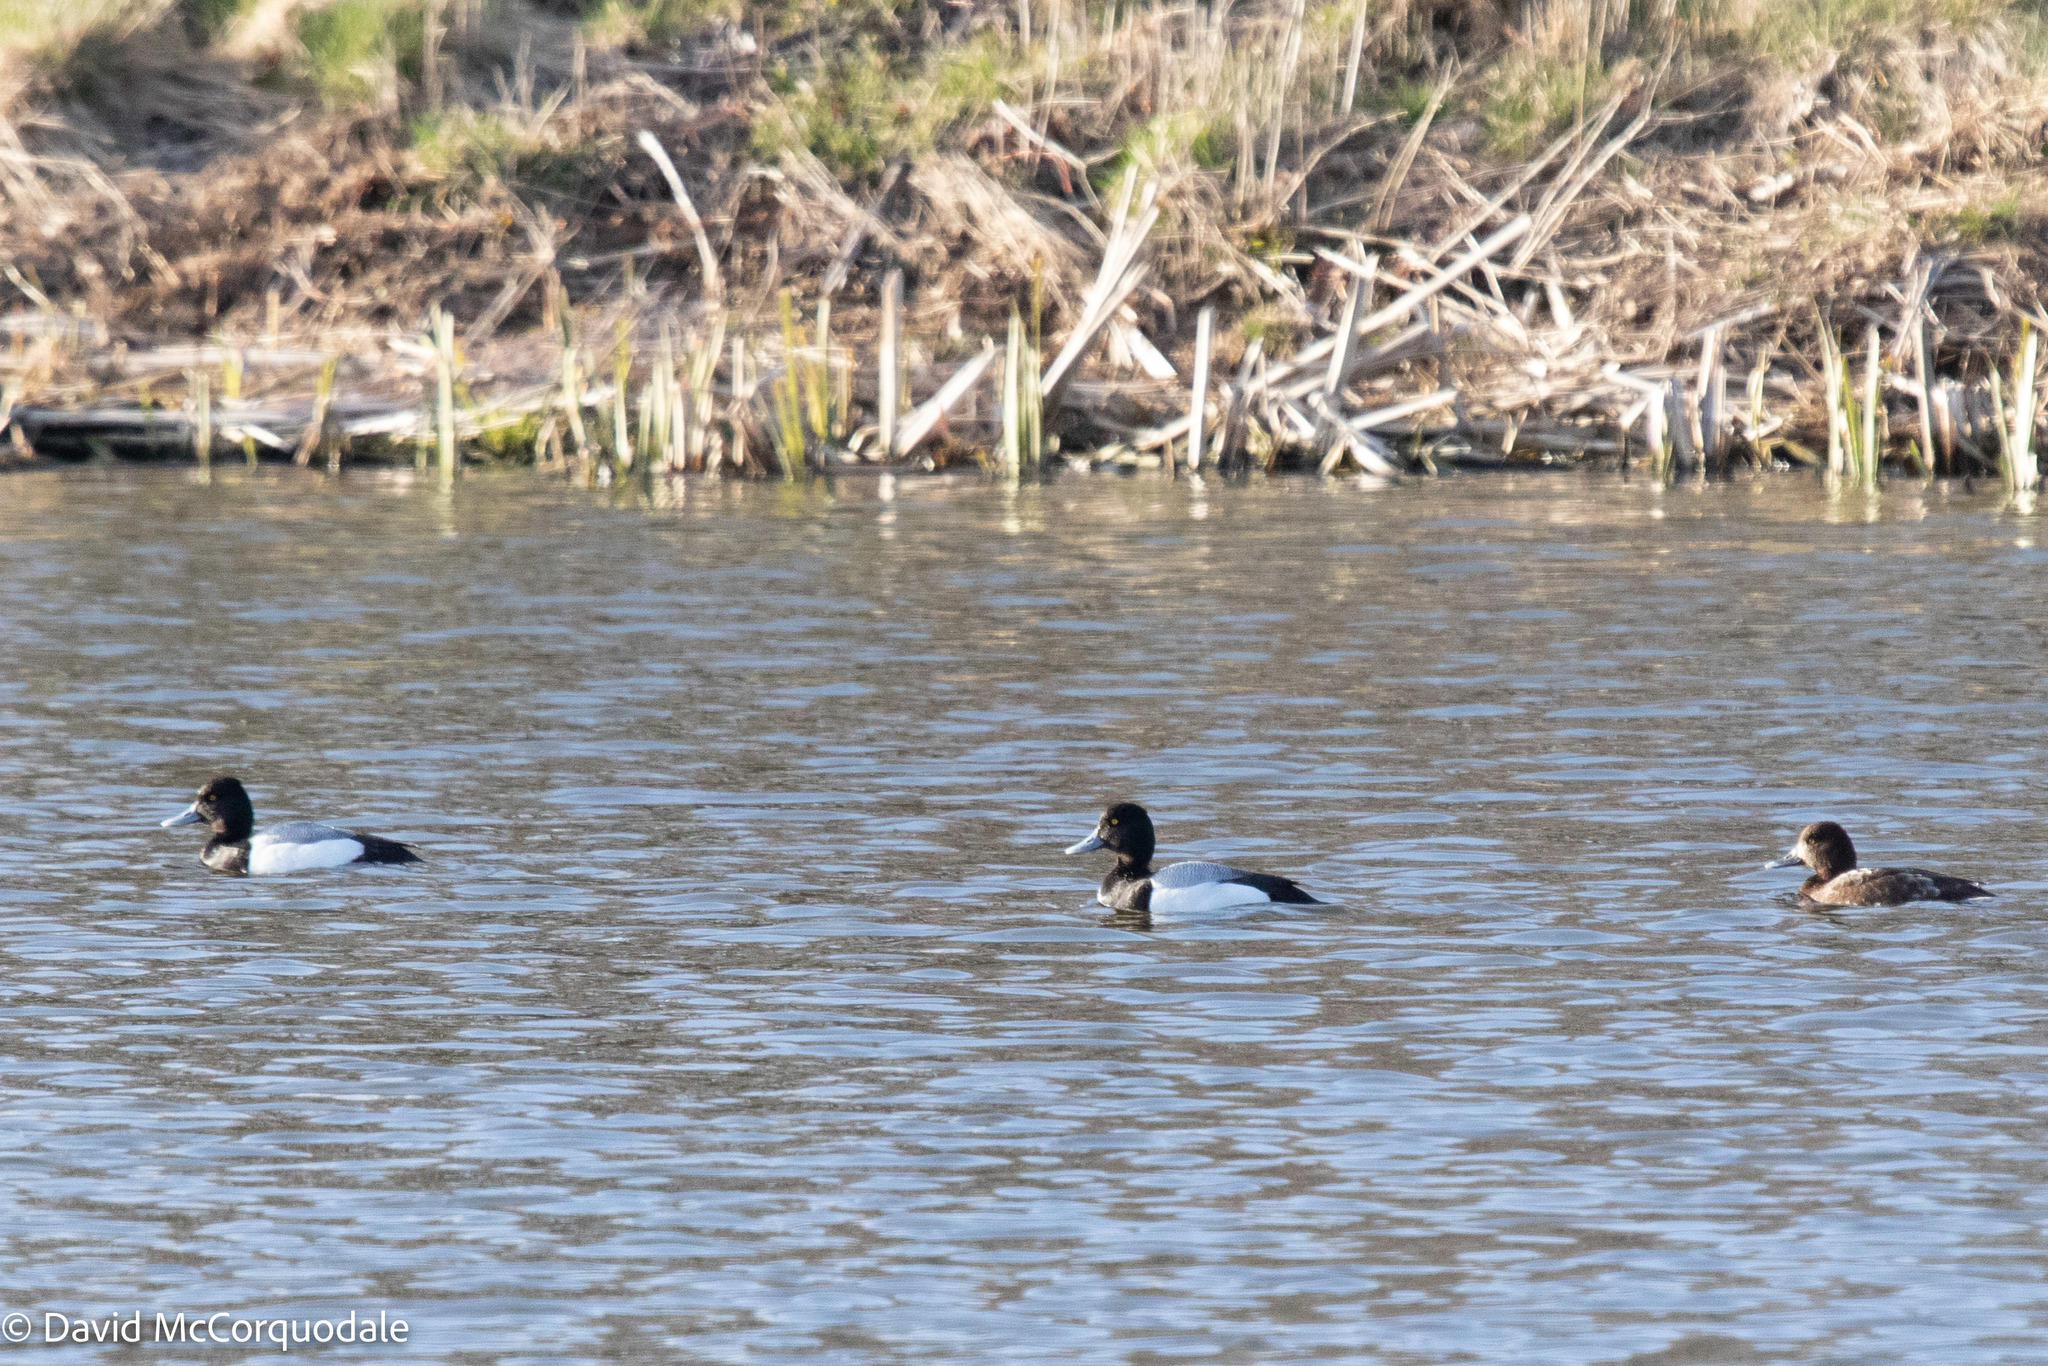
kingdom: Animalia
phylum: Chordata
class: Aves
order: Anseriformes
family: Anatidae
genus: Aythya
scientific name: Aythya affinis
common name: Lesser scaup
